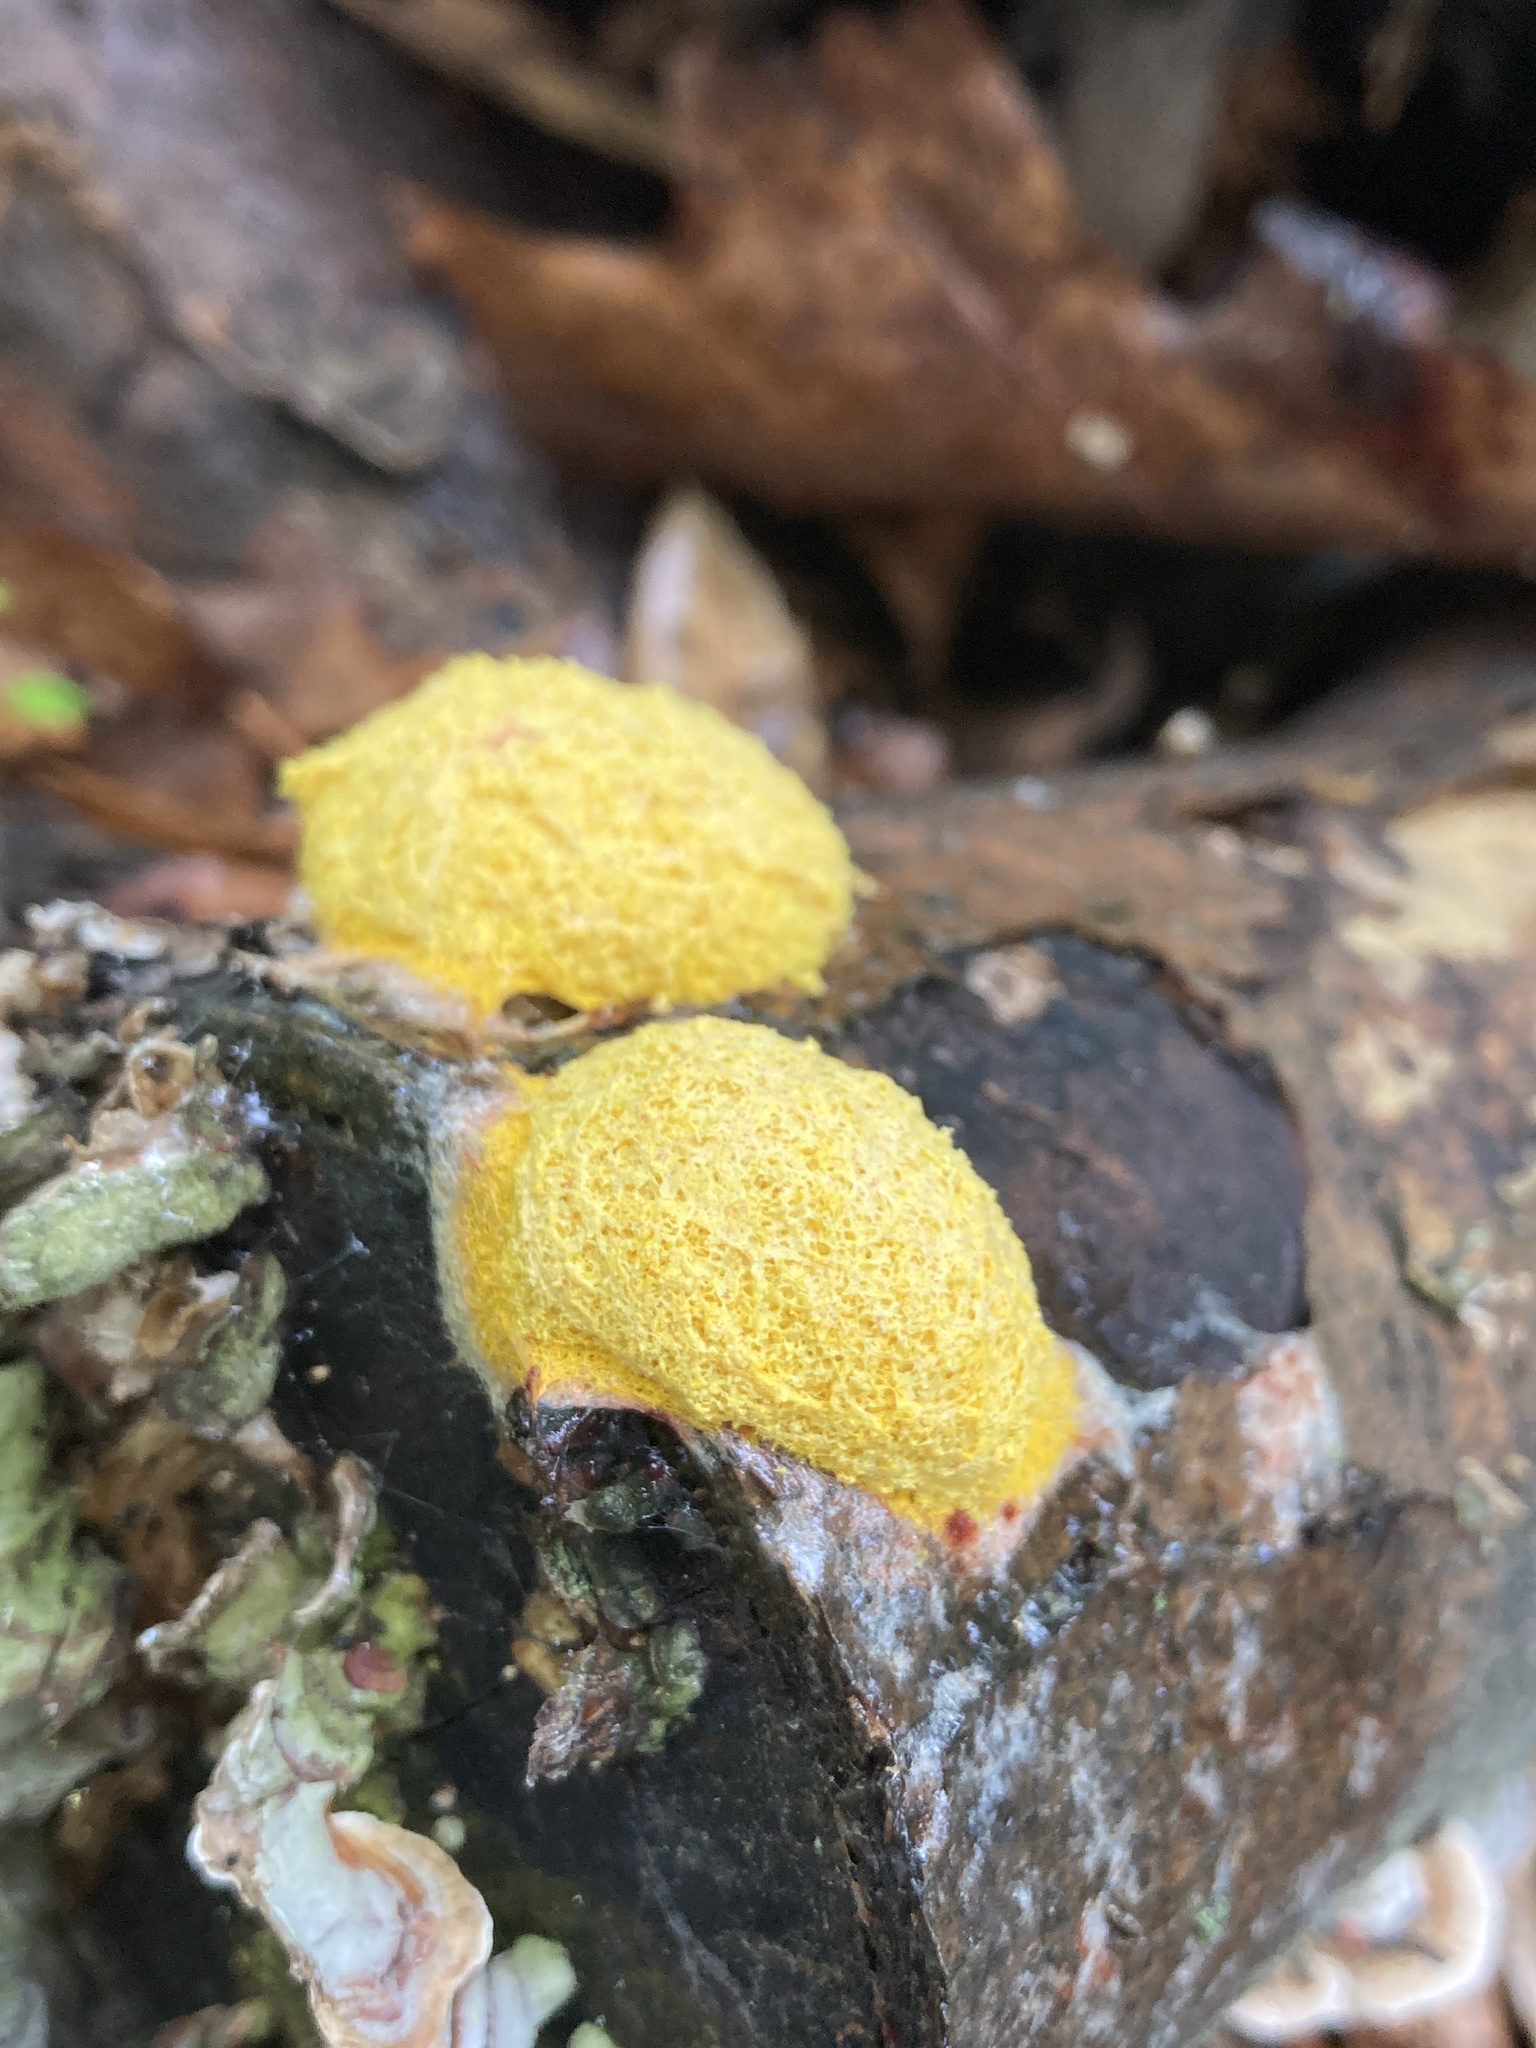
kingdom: Protozoa
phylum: Mycetozoa
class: Myxomycetes
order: Physarales
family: Physaraceae
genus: Fuligo
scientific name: Fuligo septica
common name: Dog vomit slime mold
